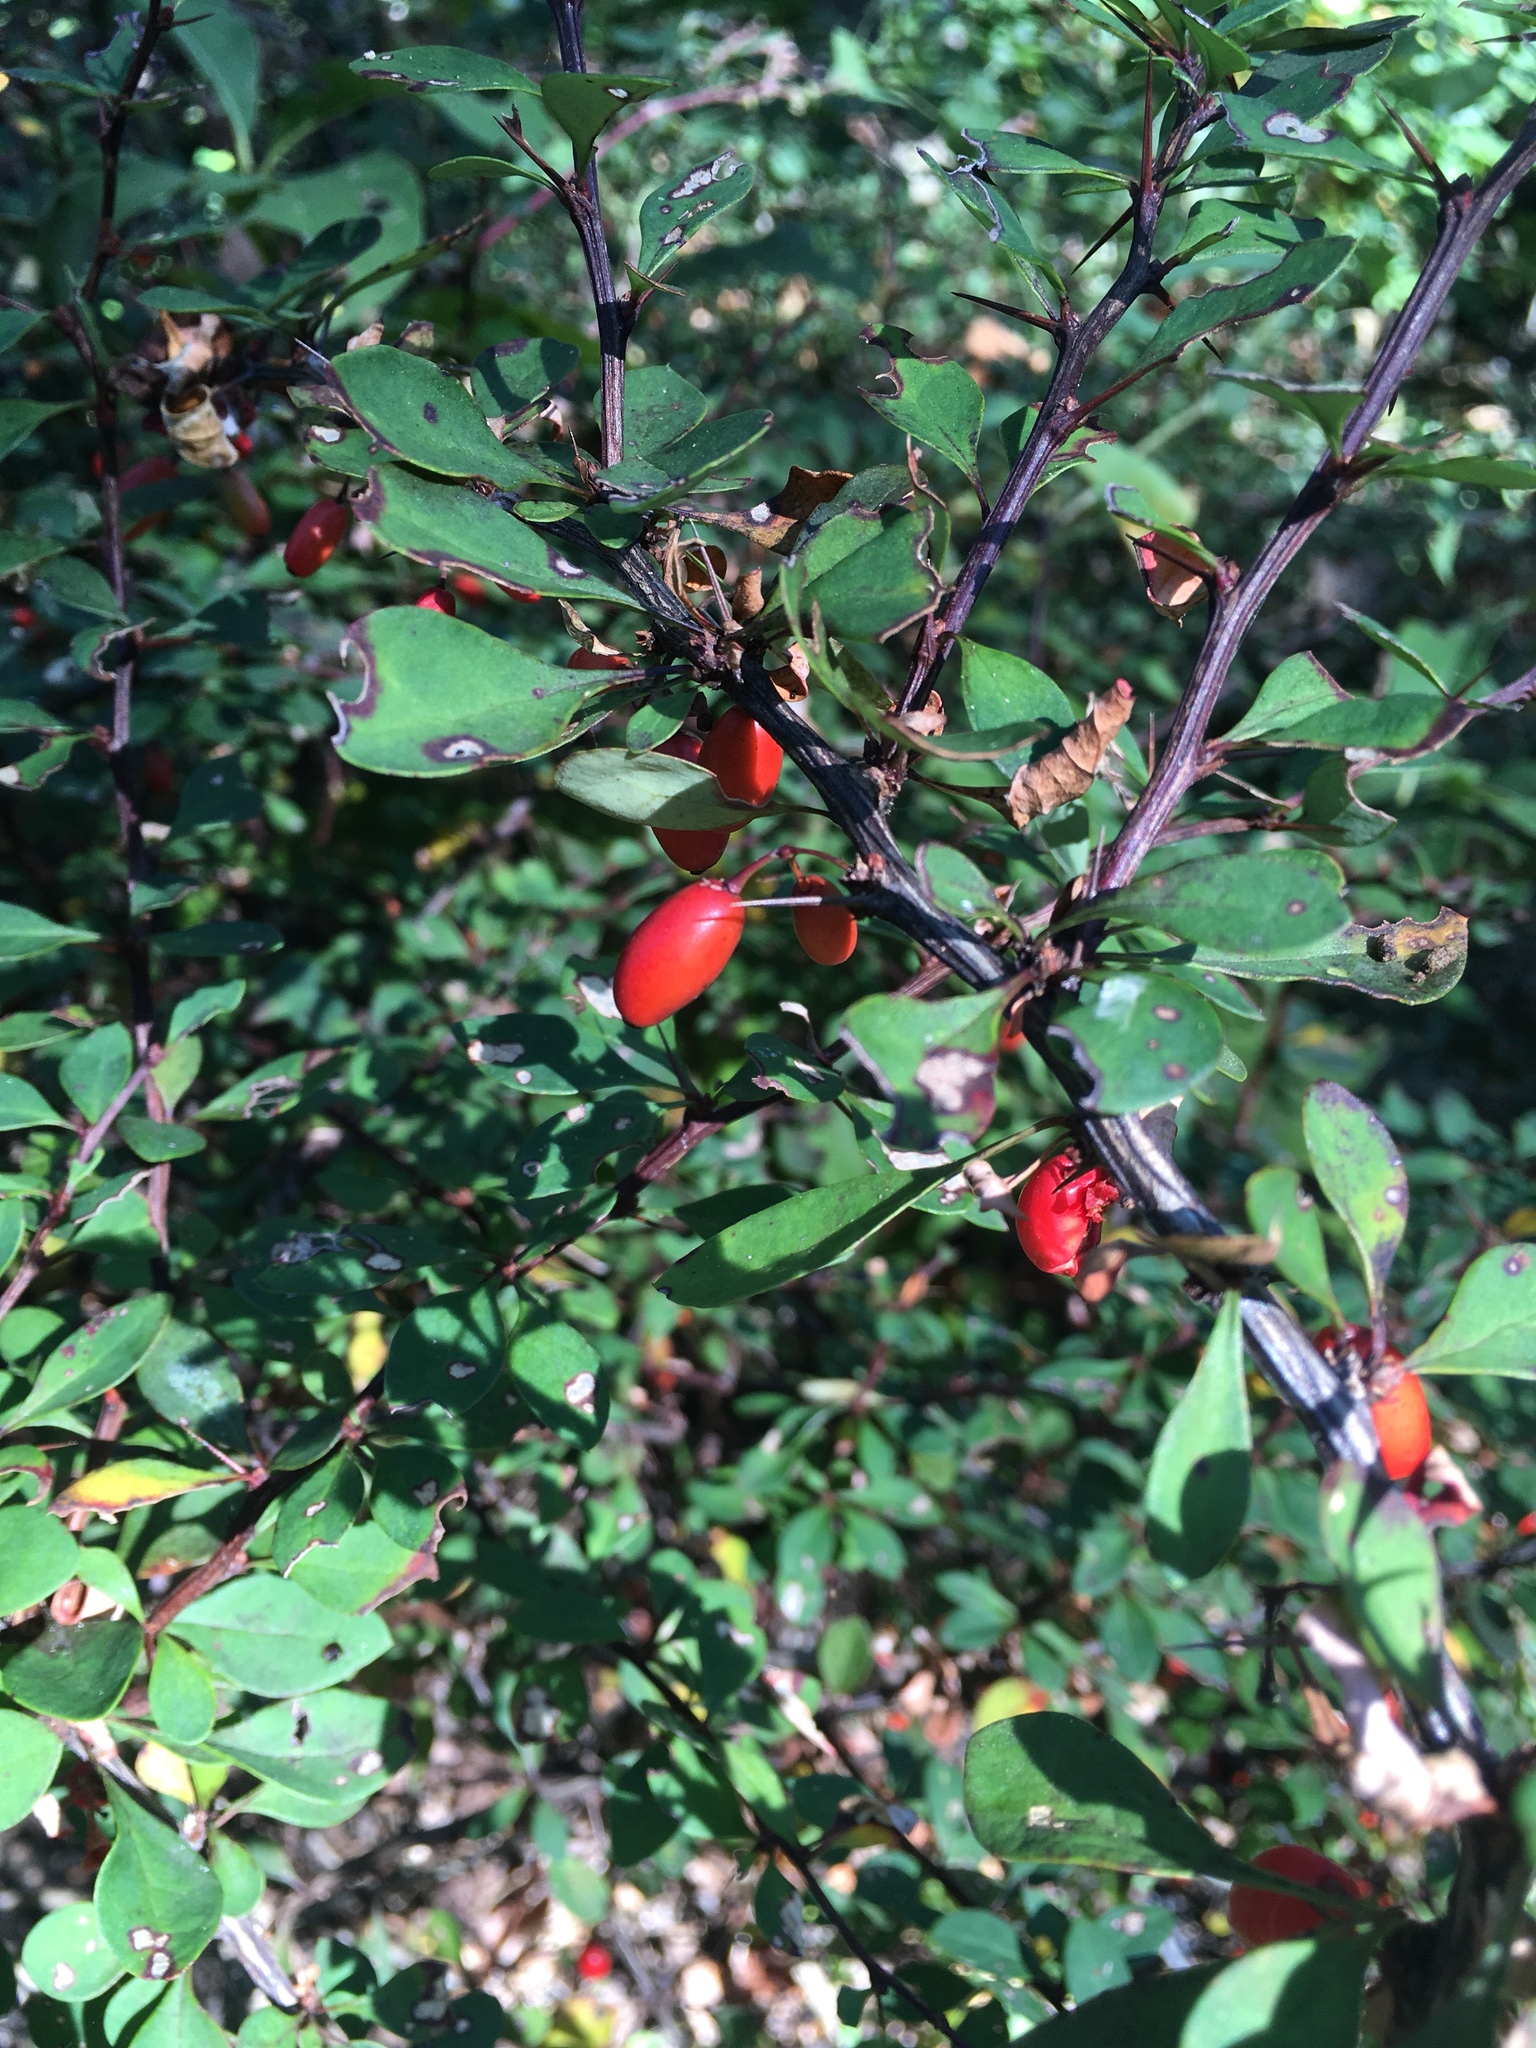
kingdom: Plantae
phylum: Tracheophyta
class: Magnoliopsida
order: Ranunculales
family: Berberidaceae
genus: Berberis
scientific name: Berberis thunbergii
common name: Japanese barberry
